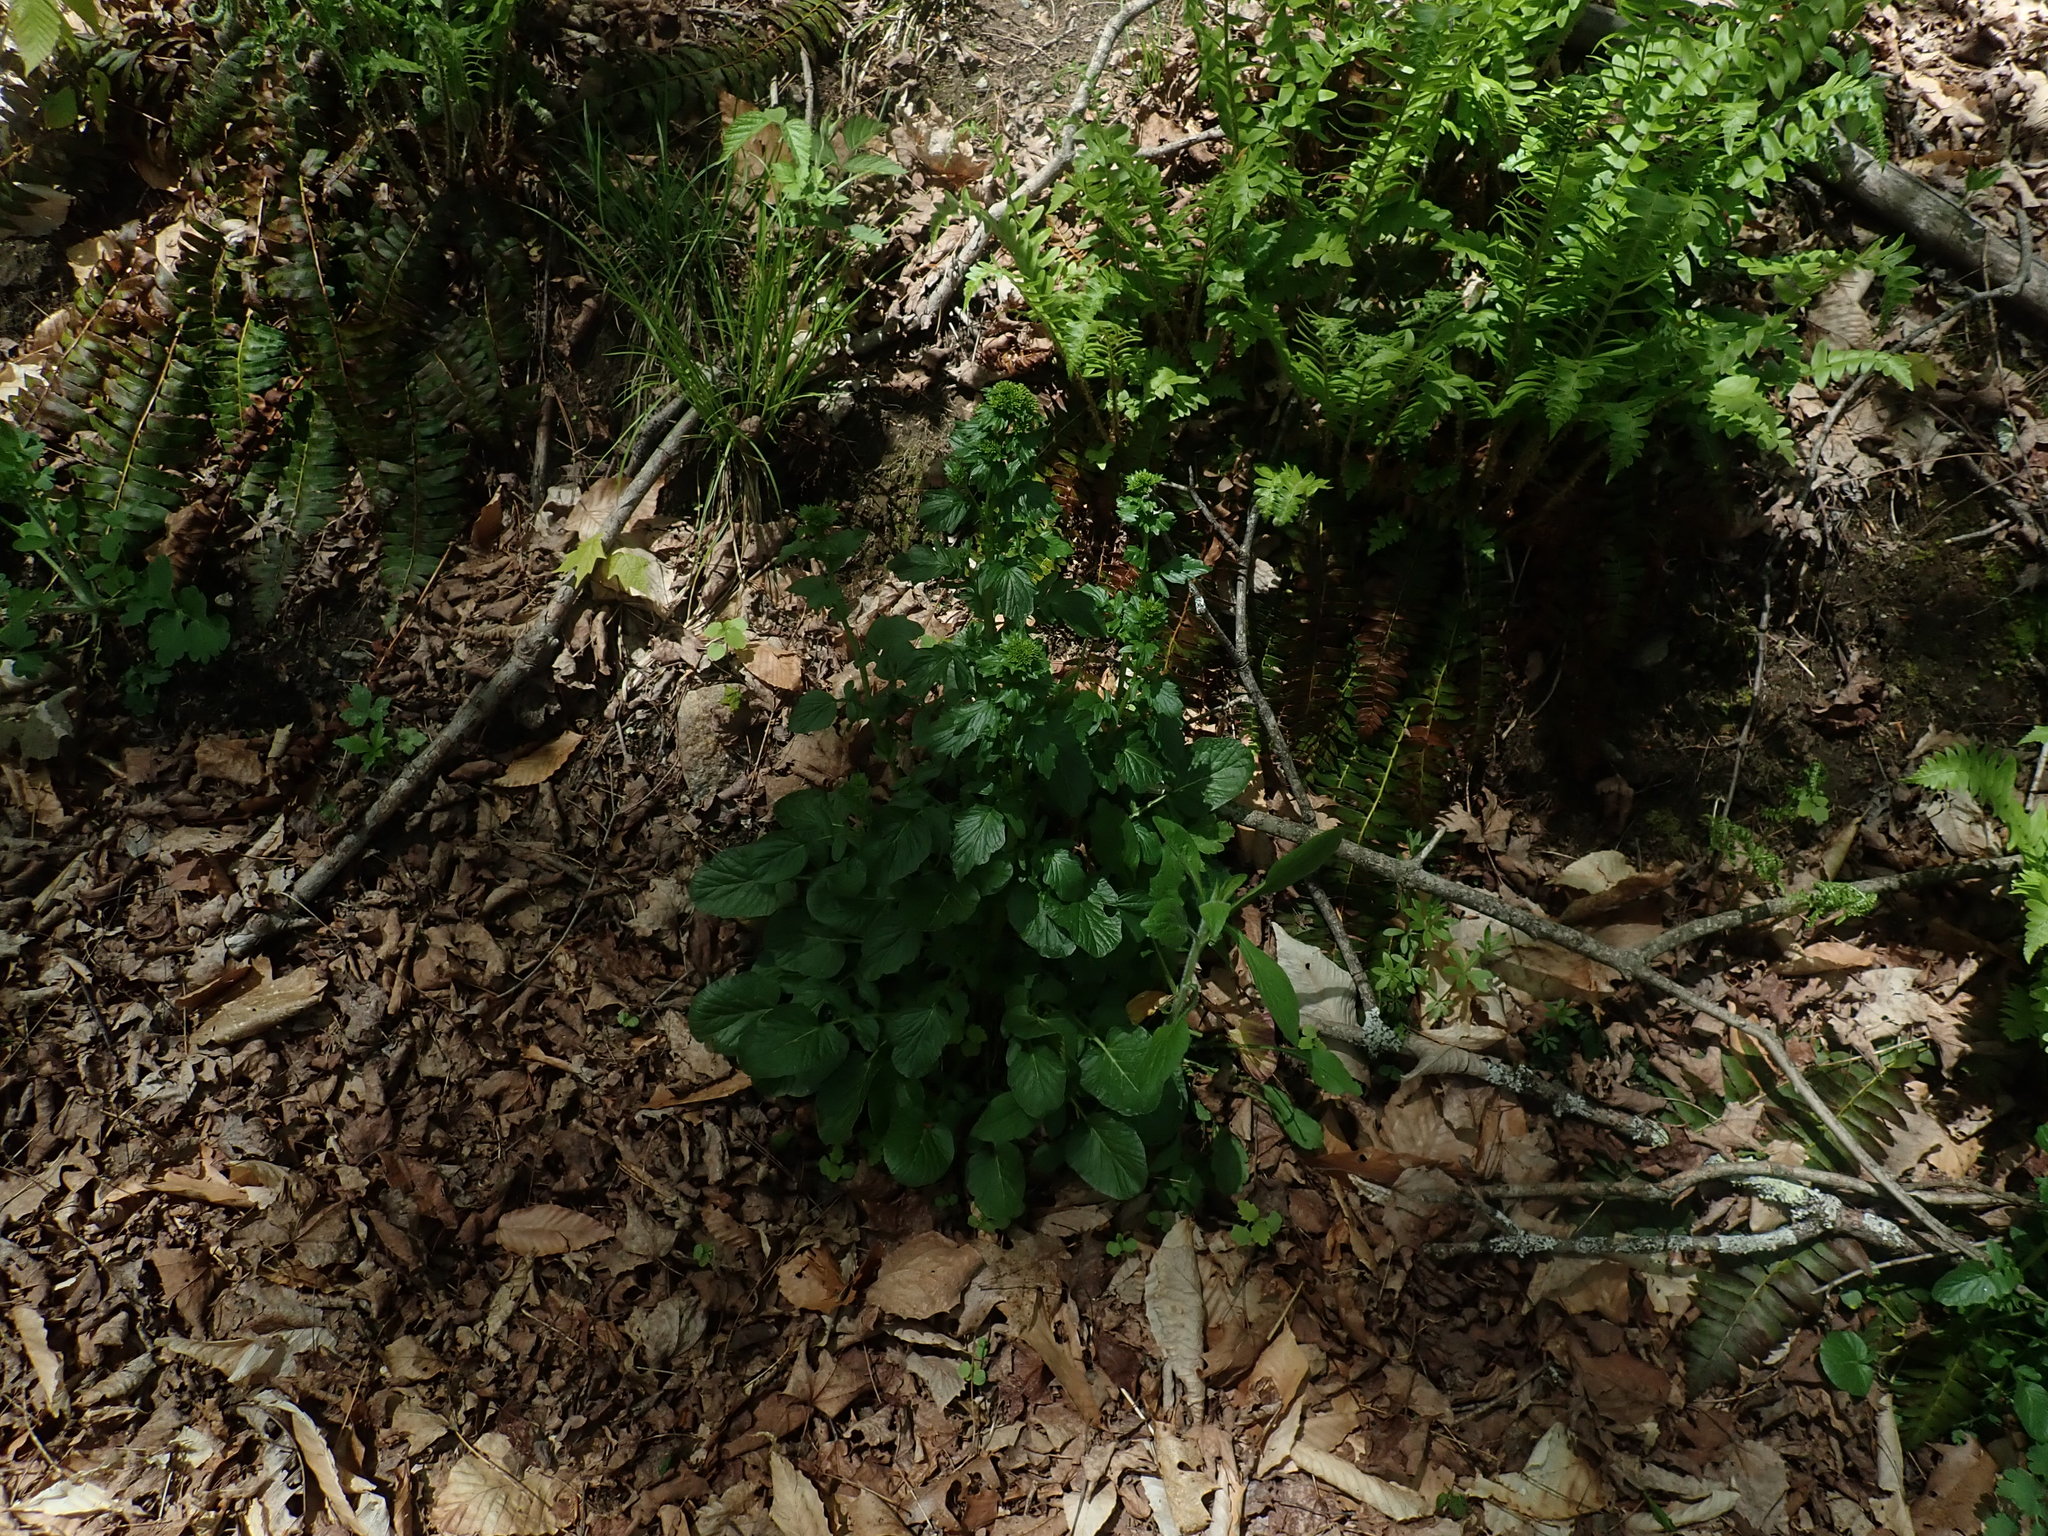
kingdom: Plantae
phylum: Tracheophyta
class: Magnoliopsida
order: Brassicales
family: Brassicaceae
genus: Barbarea
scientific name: Barbarea vulgaris
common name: Cressy-greens
